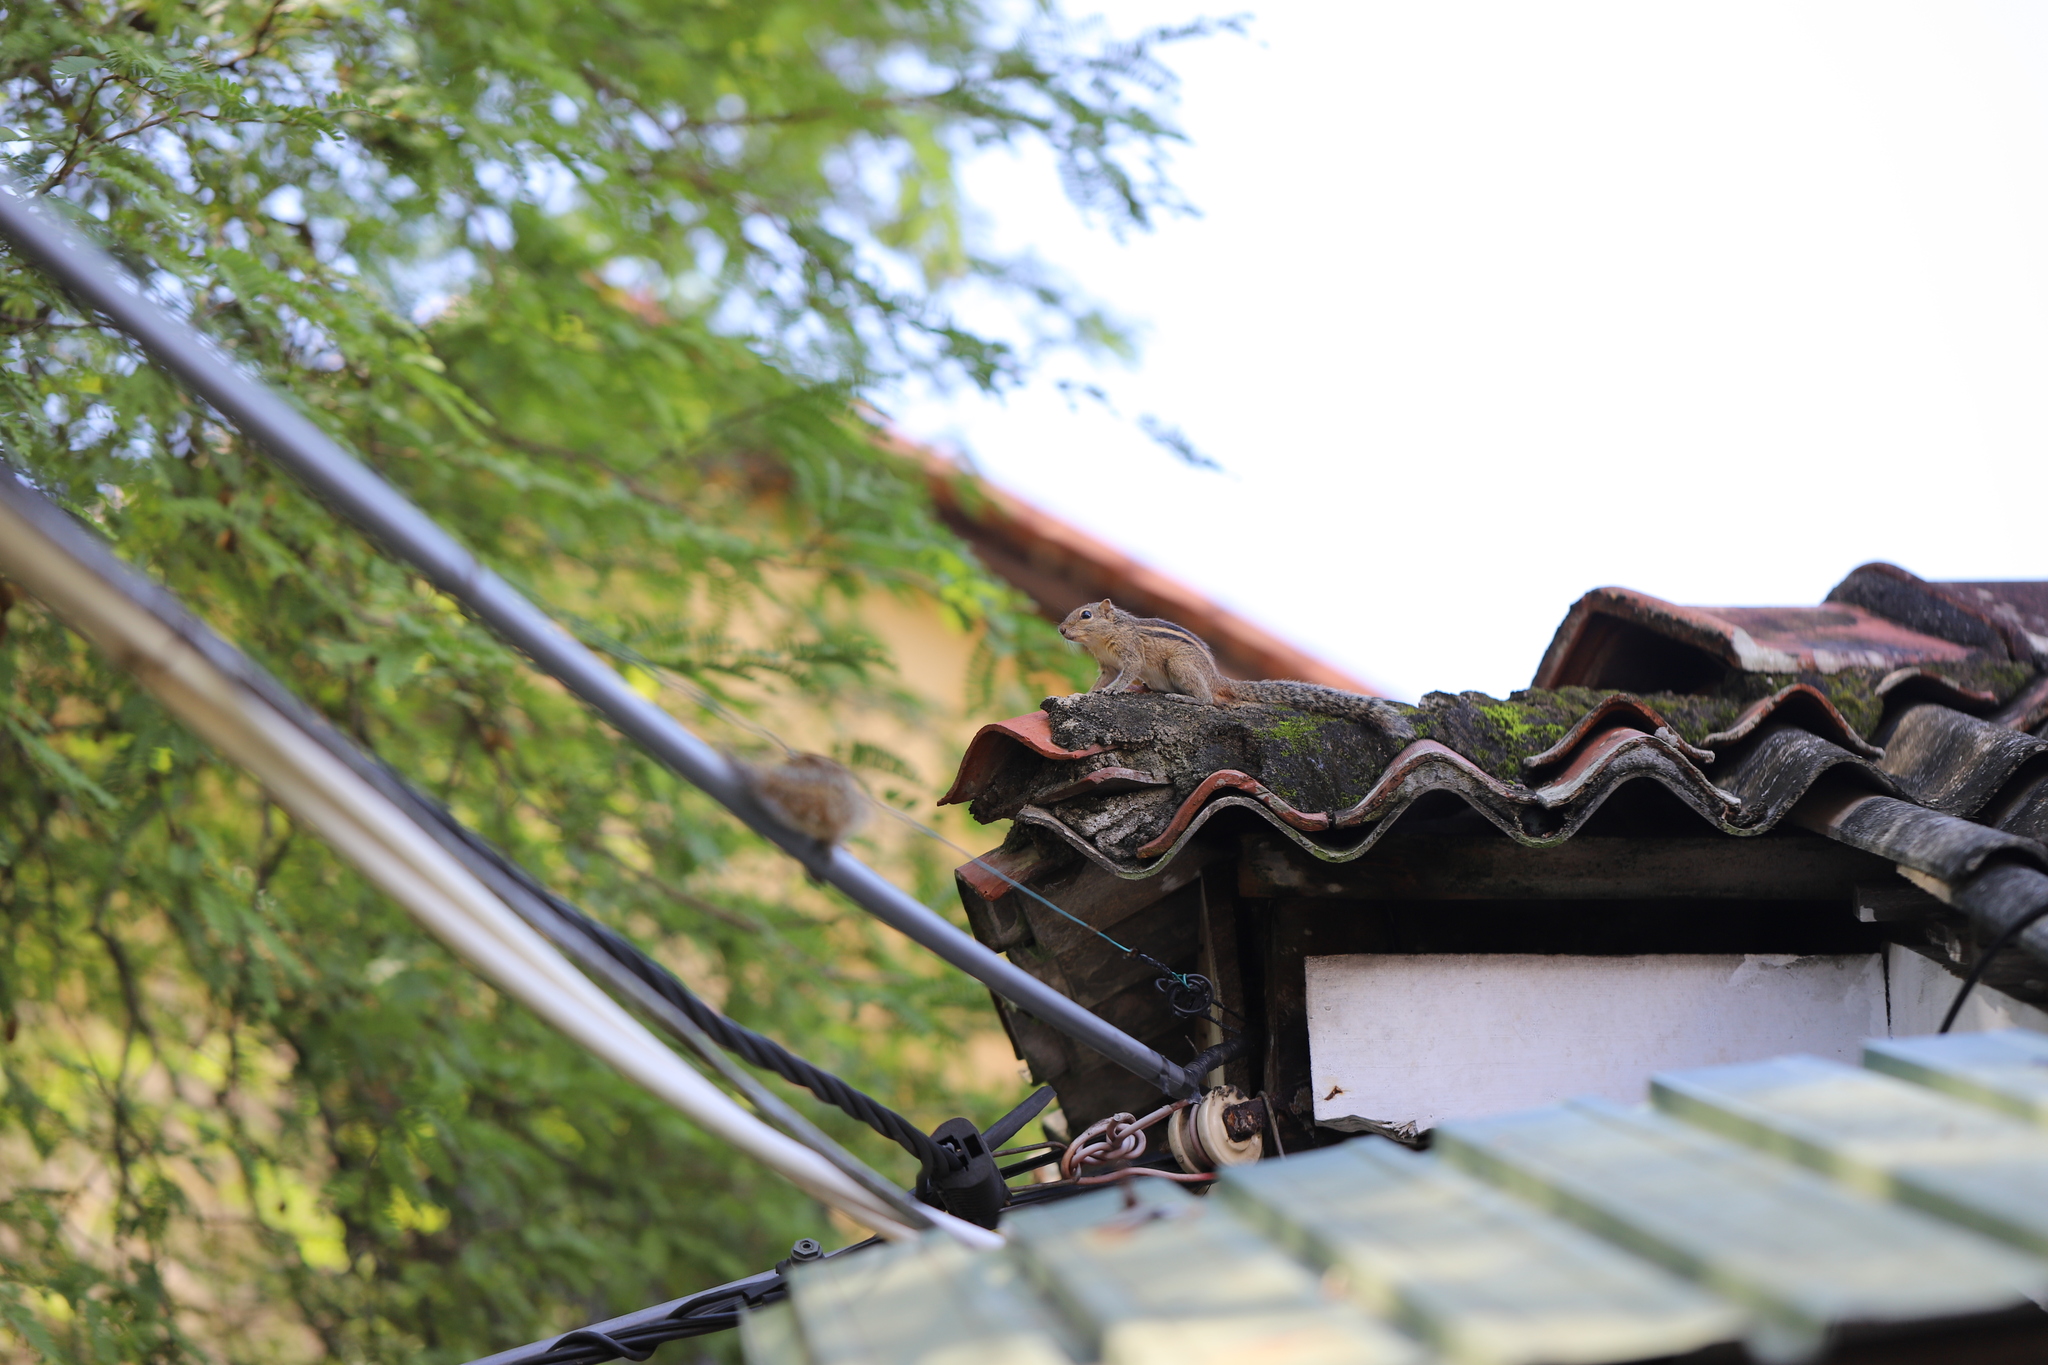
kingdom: Animalia
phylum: Chordata
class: Mammalia
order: Rodentia
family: Sciuridae
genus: Funambulus
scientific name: Funambulus palmarum
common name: Indian palm squirrel
